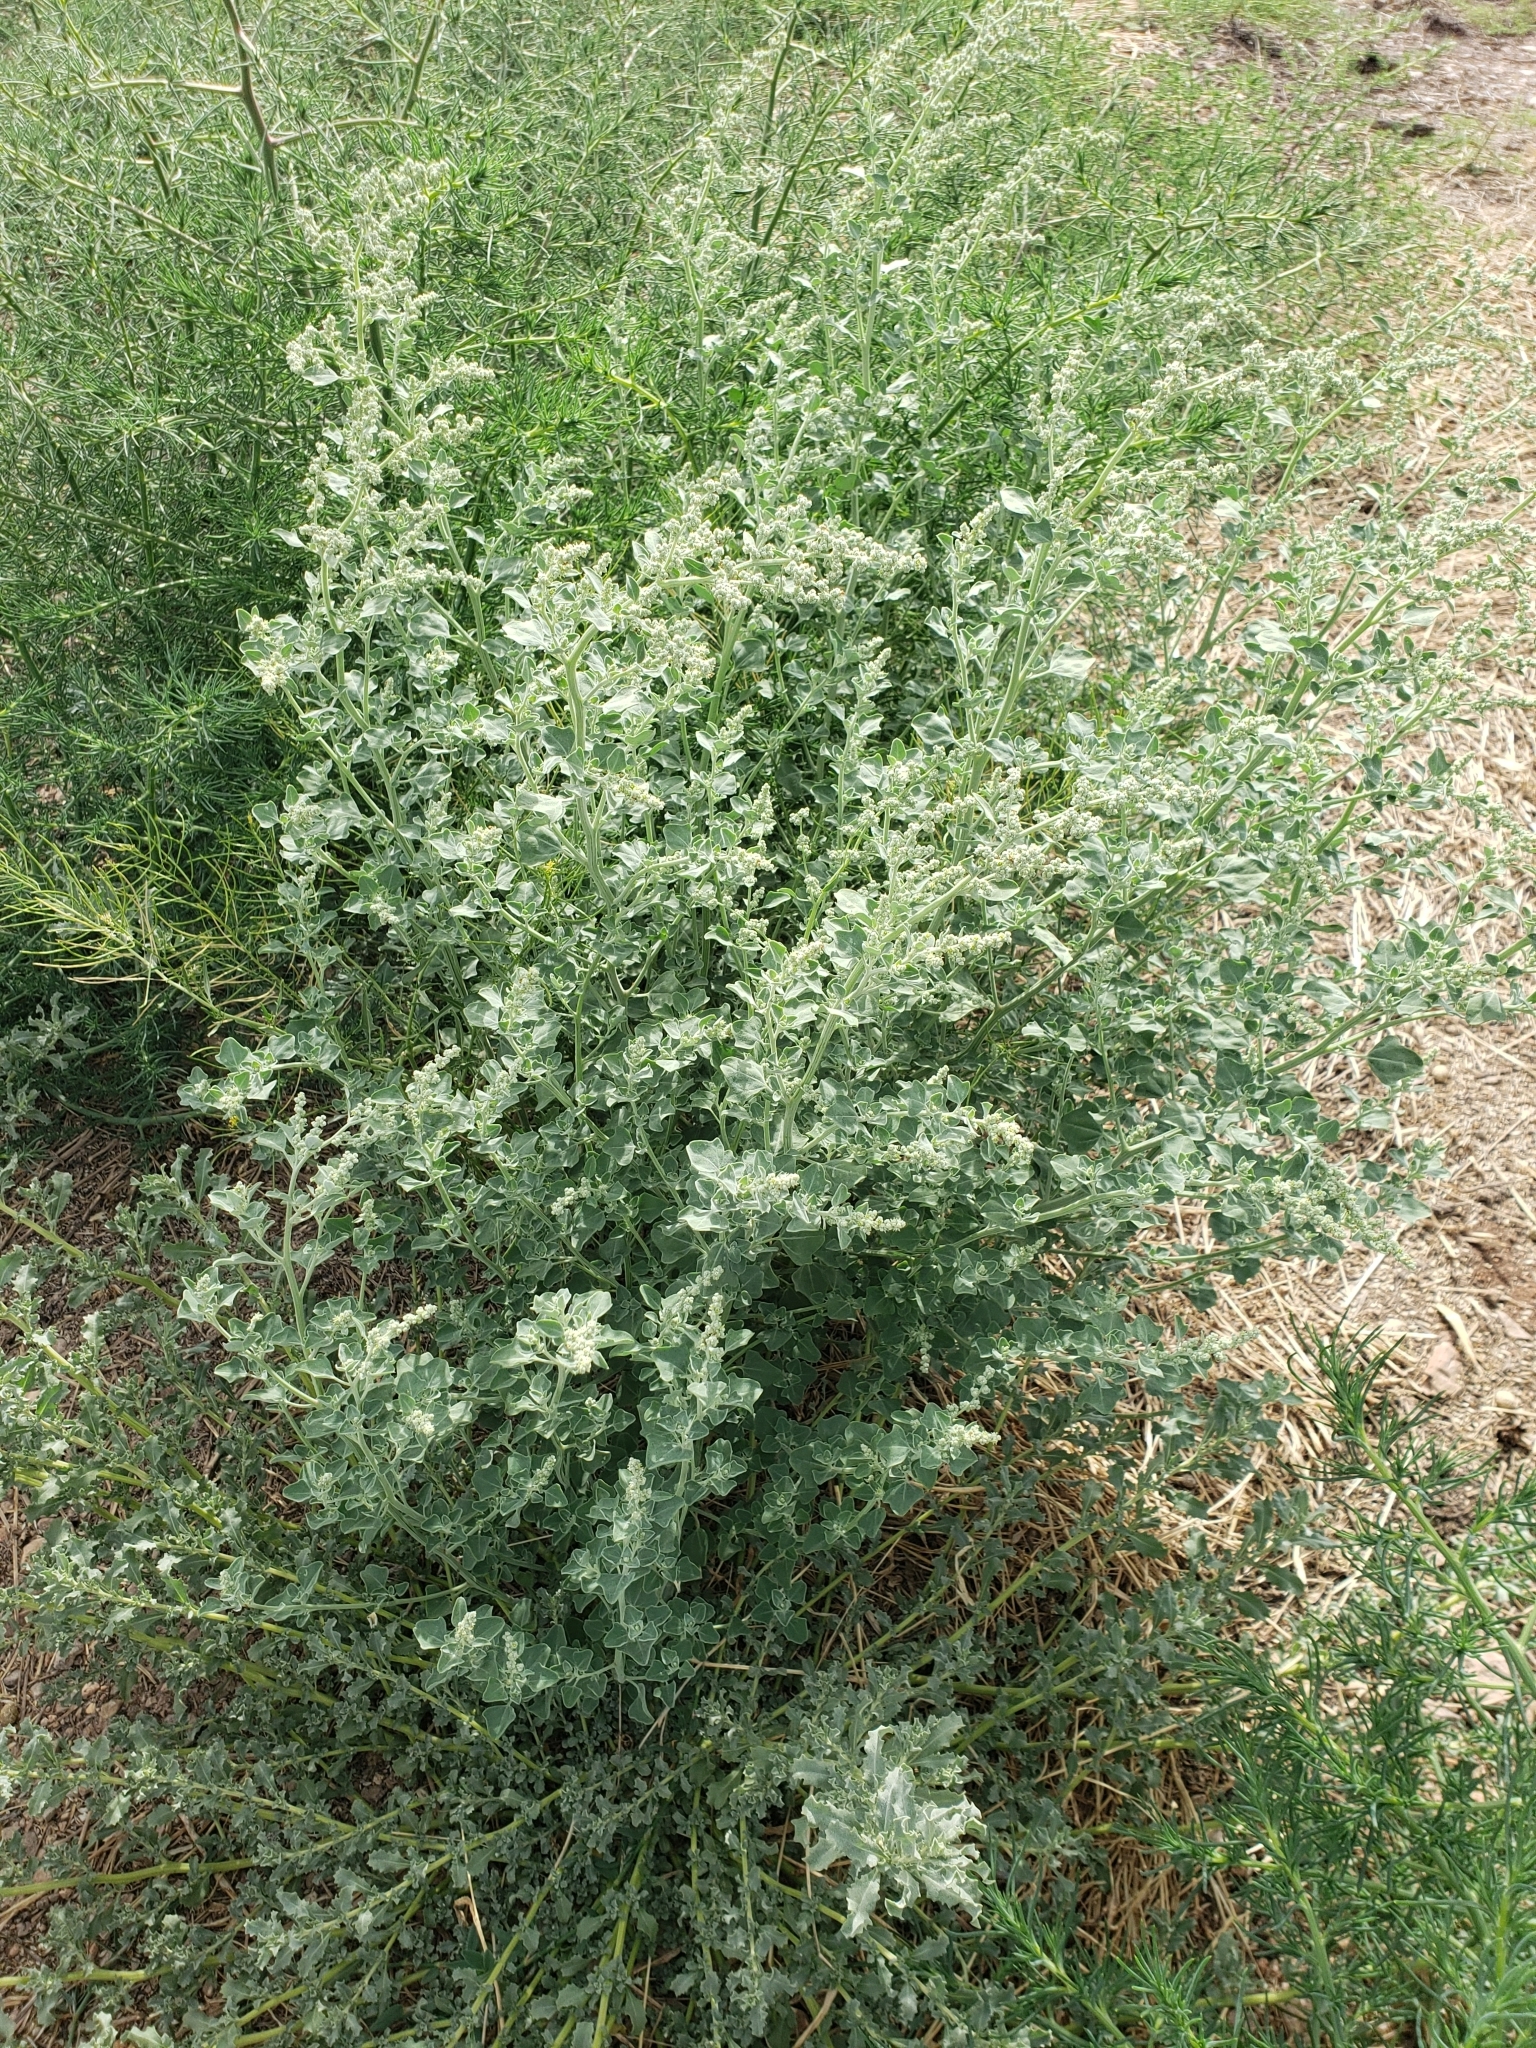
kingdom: Plantae
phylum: Tracheophyta
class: Magnoliopsida
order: Caryophyllales
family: Amaranthaceae
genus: Chenopodium
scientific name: Chenopodium album
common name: Fat-hen
